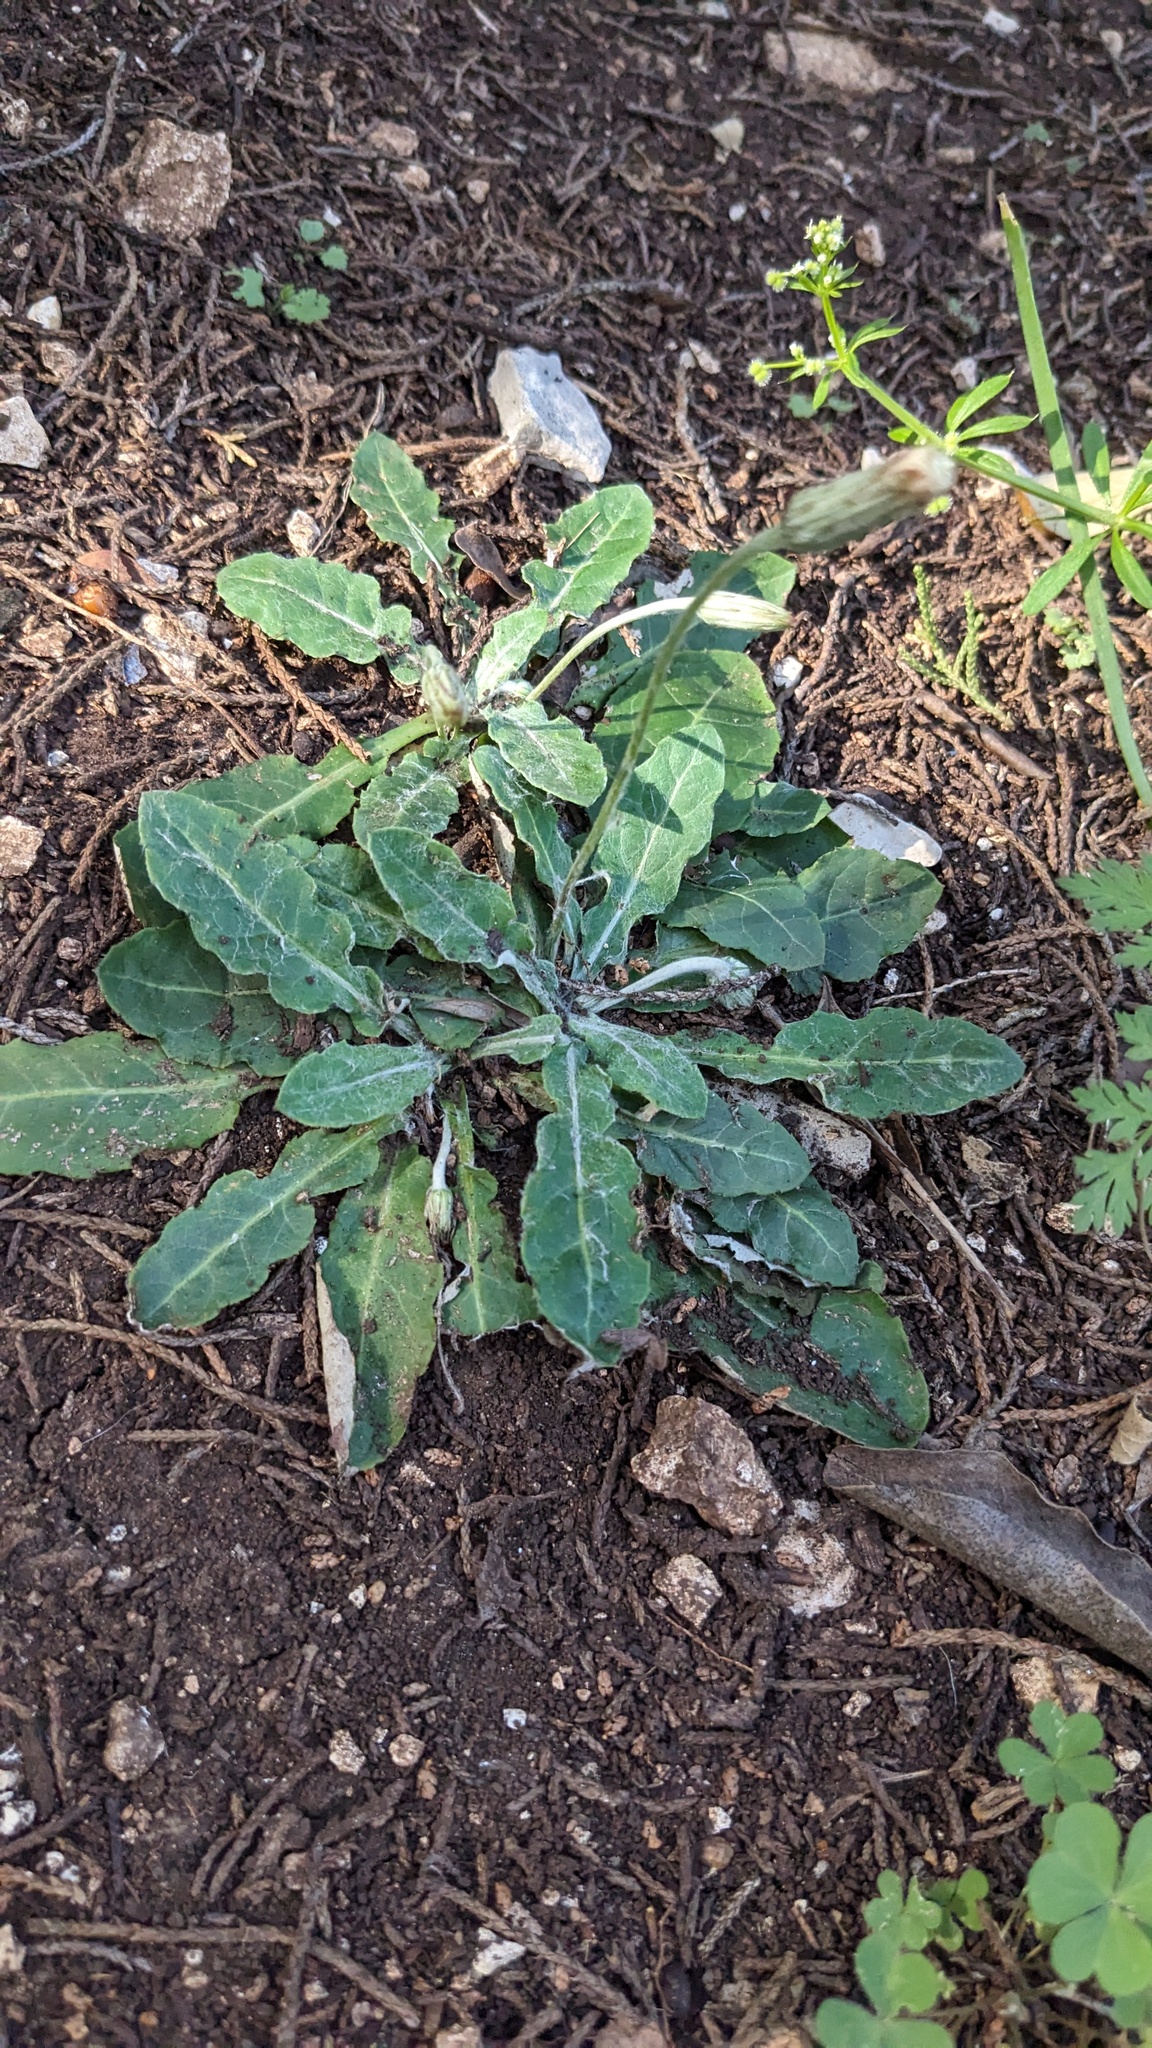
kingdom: Plantae
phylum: Tracheophyta
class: Magnoliopsida
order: Asterales
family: Asteraceae
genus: Chaptalia
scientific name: Chaptalia texana
